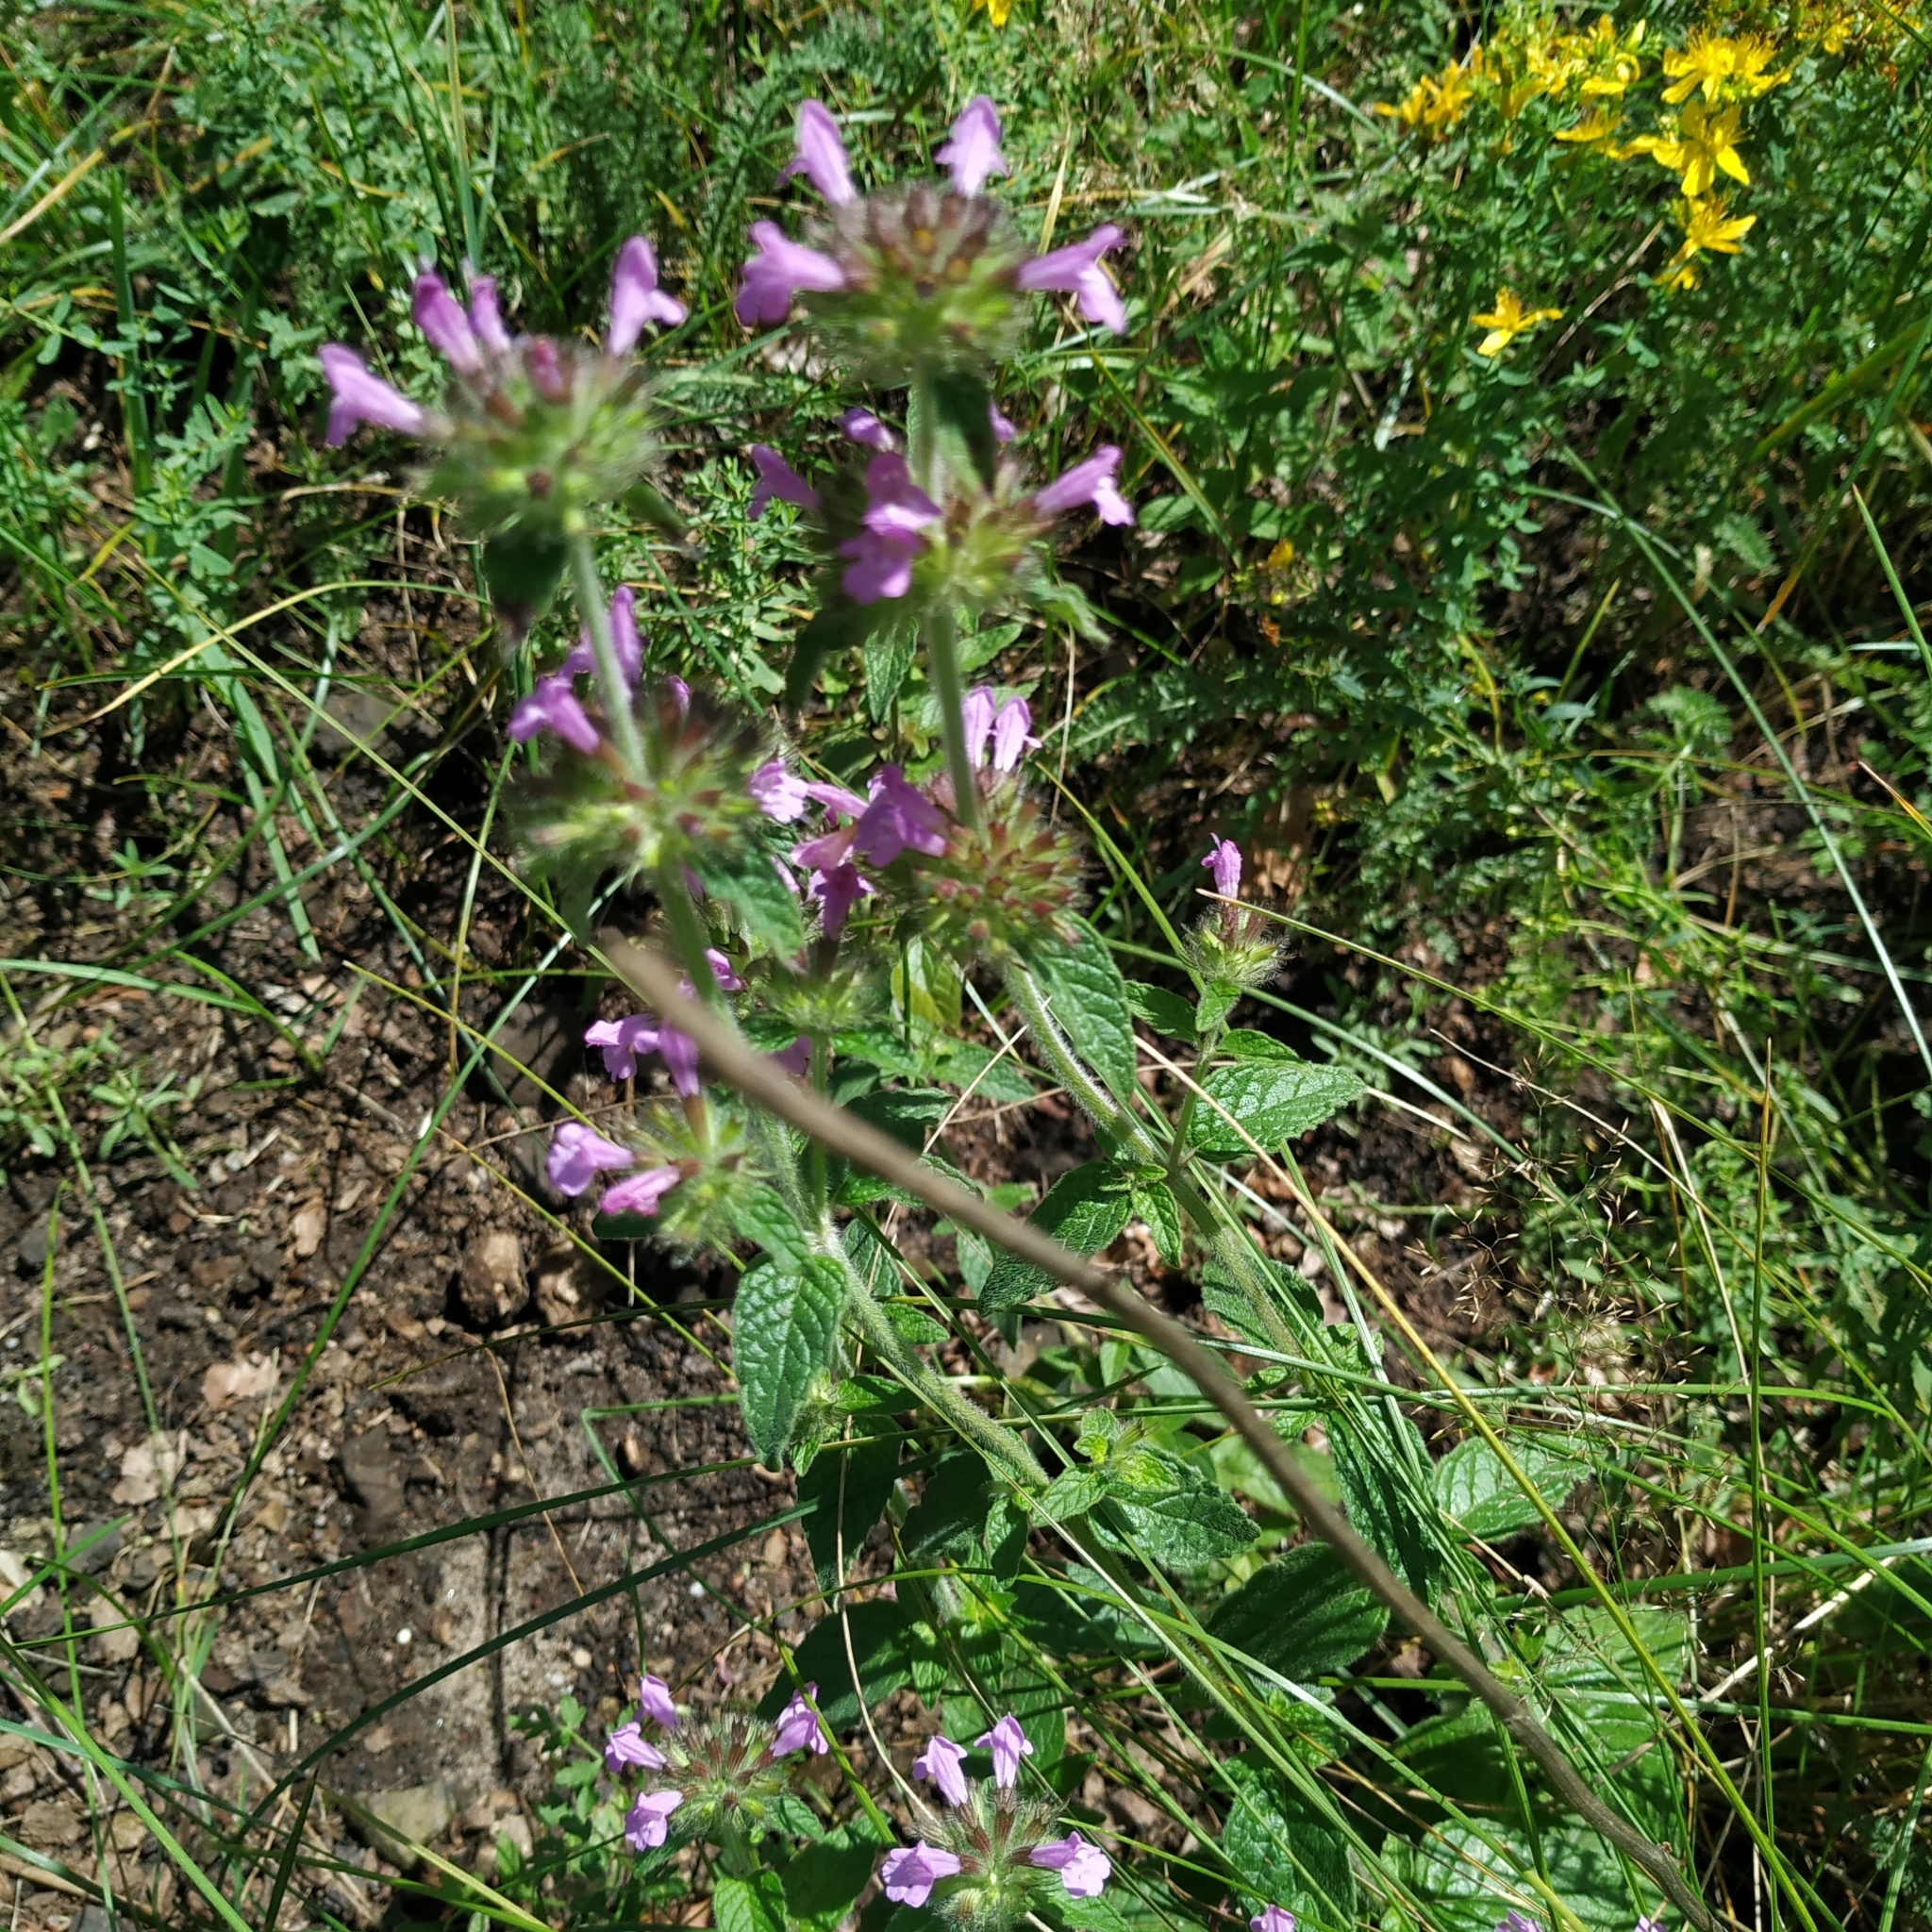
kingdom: Plantae
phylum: Tracheophyta
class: Magnoliopsida
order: Lamiales
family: Lamiaceae
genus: Clinopodium
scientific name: Clinopodium vulgare
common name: Wild basil
